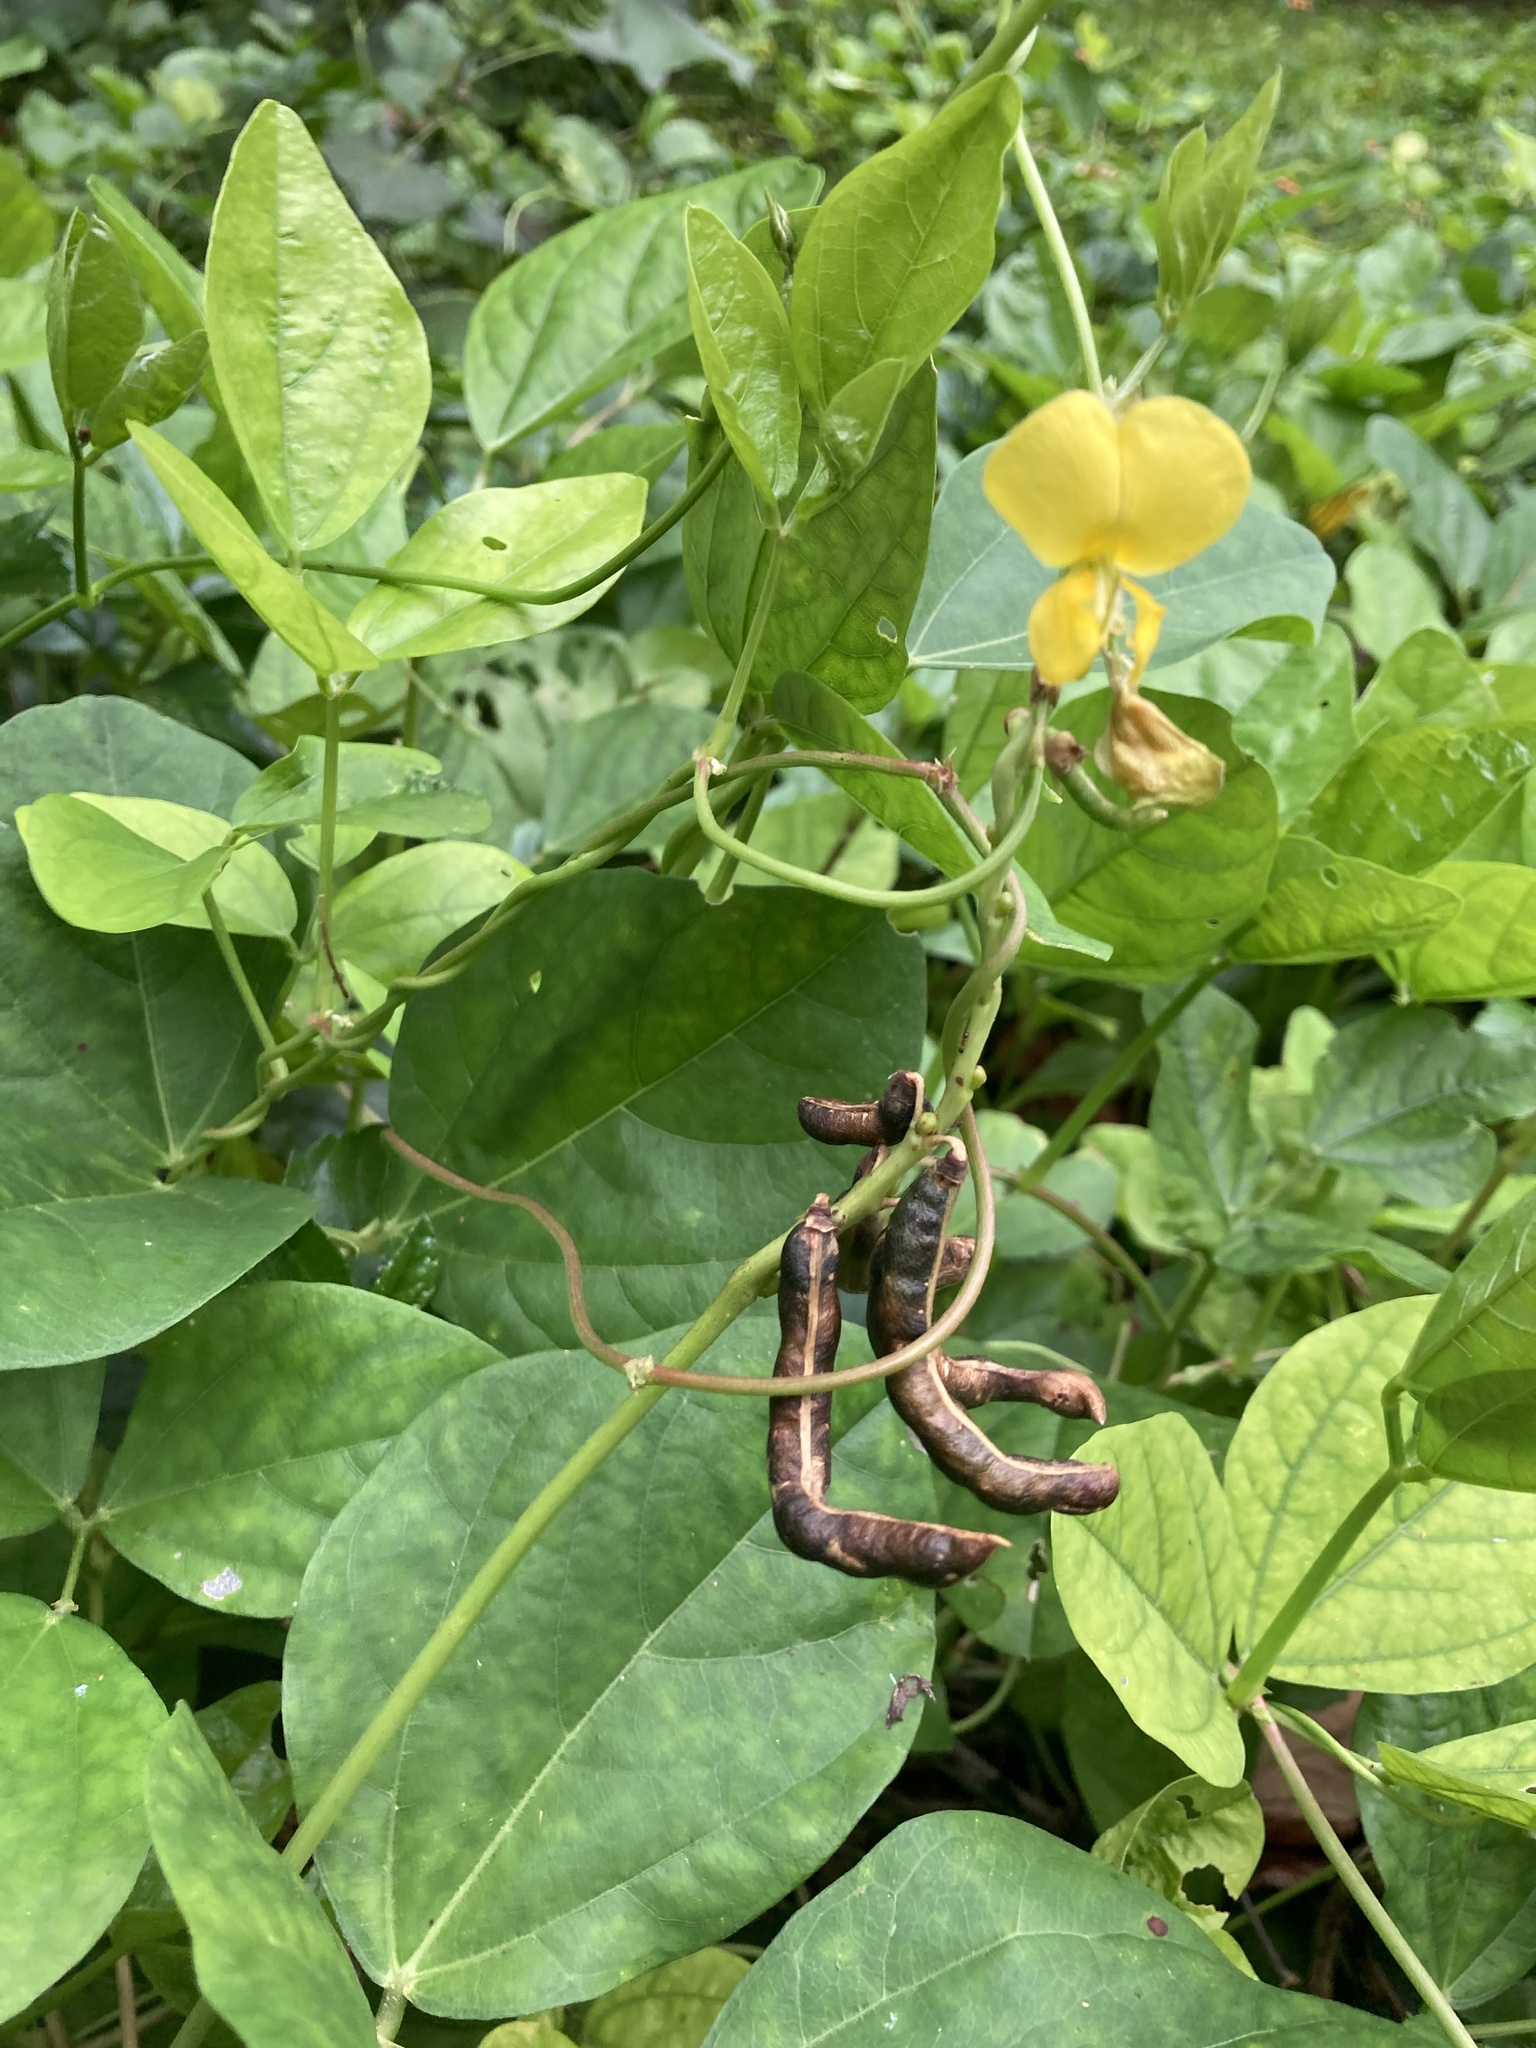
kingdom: Plantae
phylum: Tracheophyta
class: Magnoliopsida
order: Fabales
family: Fabaceae
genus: Vigna
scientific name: Vigna marina
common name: Dune-bean
